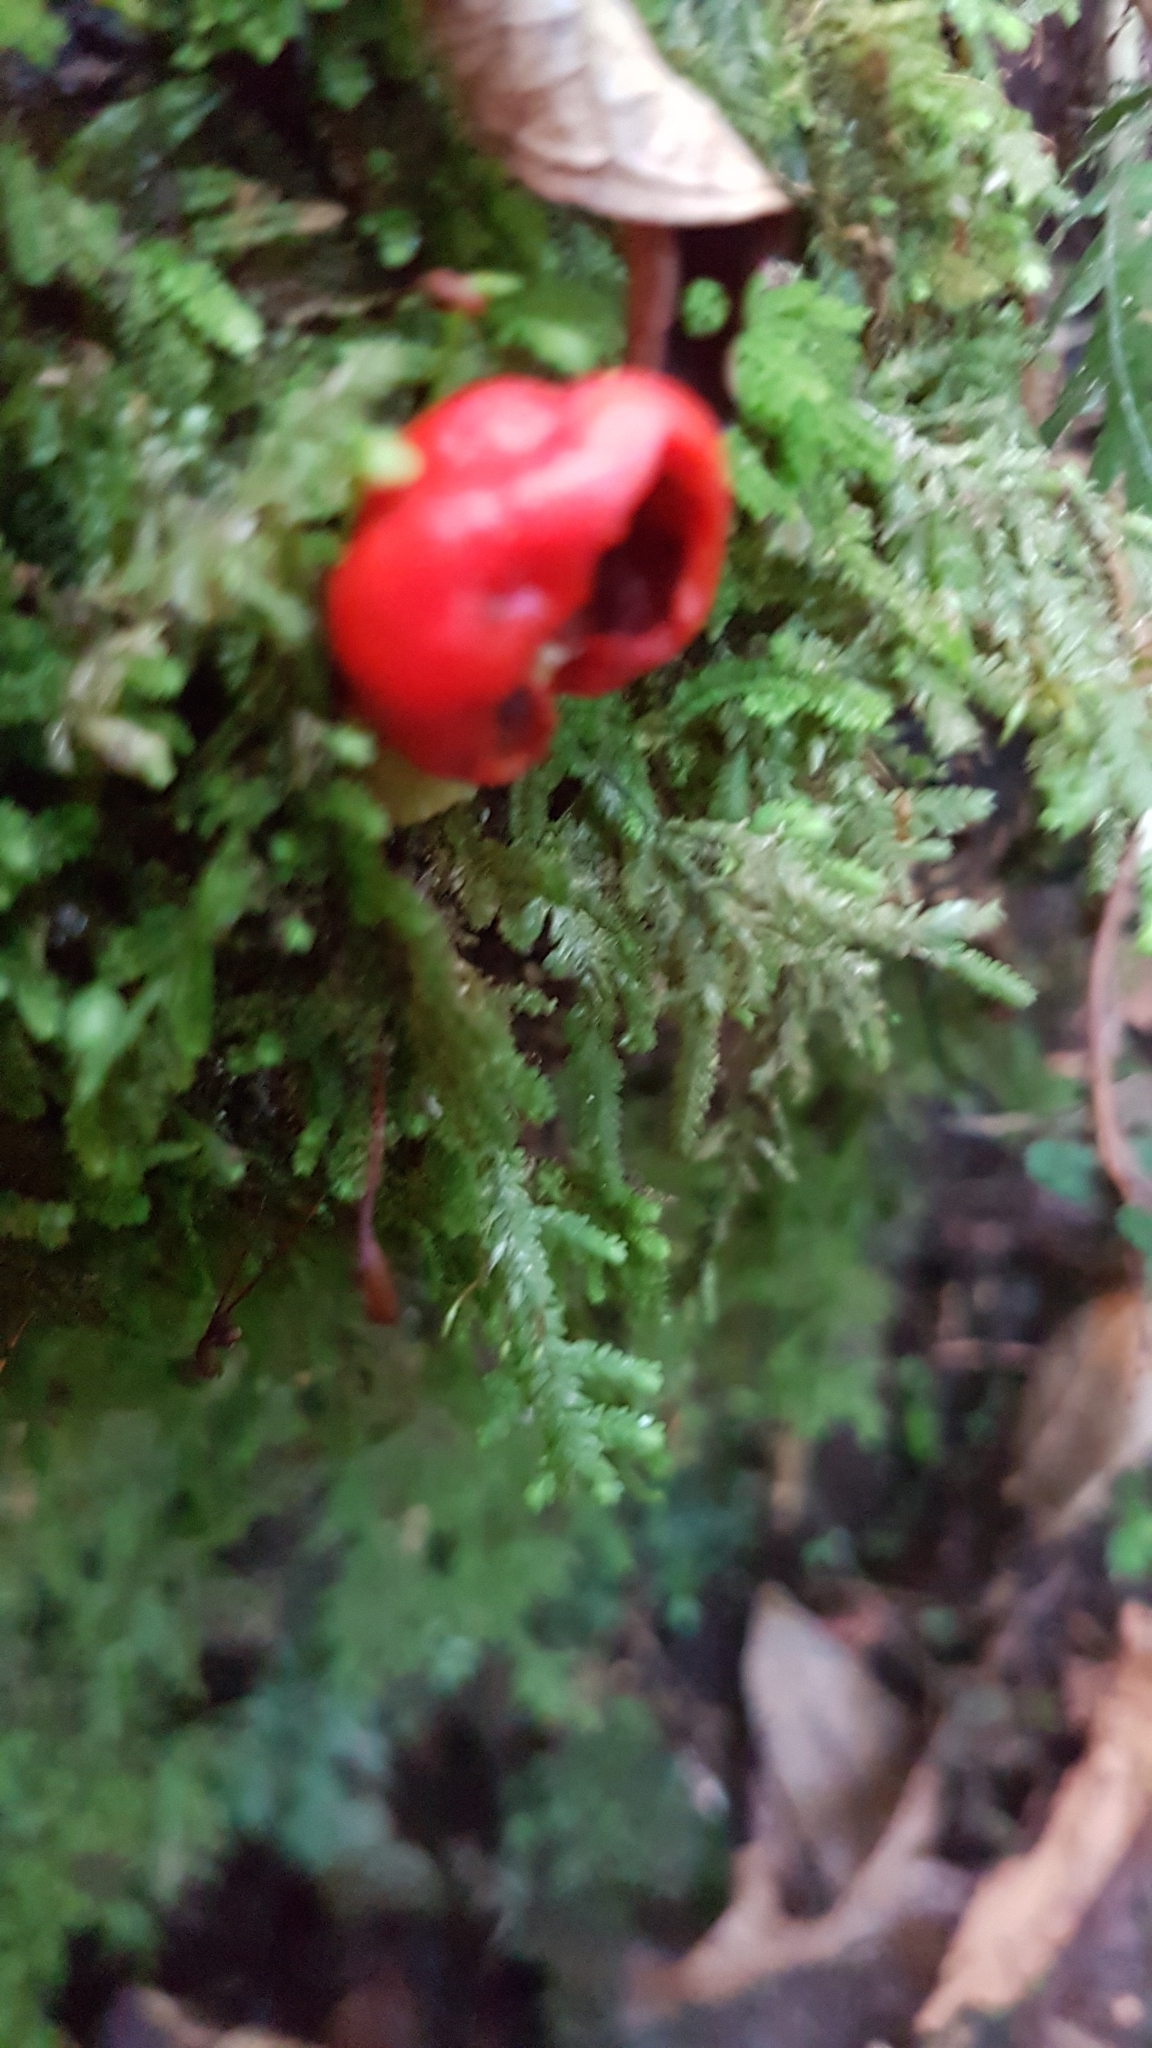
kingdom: Fungi
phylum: Basidiomycota
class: Agaricomycetes
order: Agaricales
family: Strophariaceae
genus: Leratiomyces
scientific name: Leratiomyces erythrocephalus
